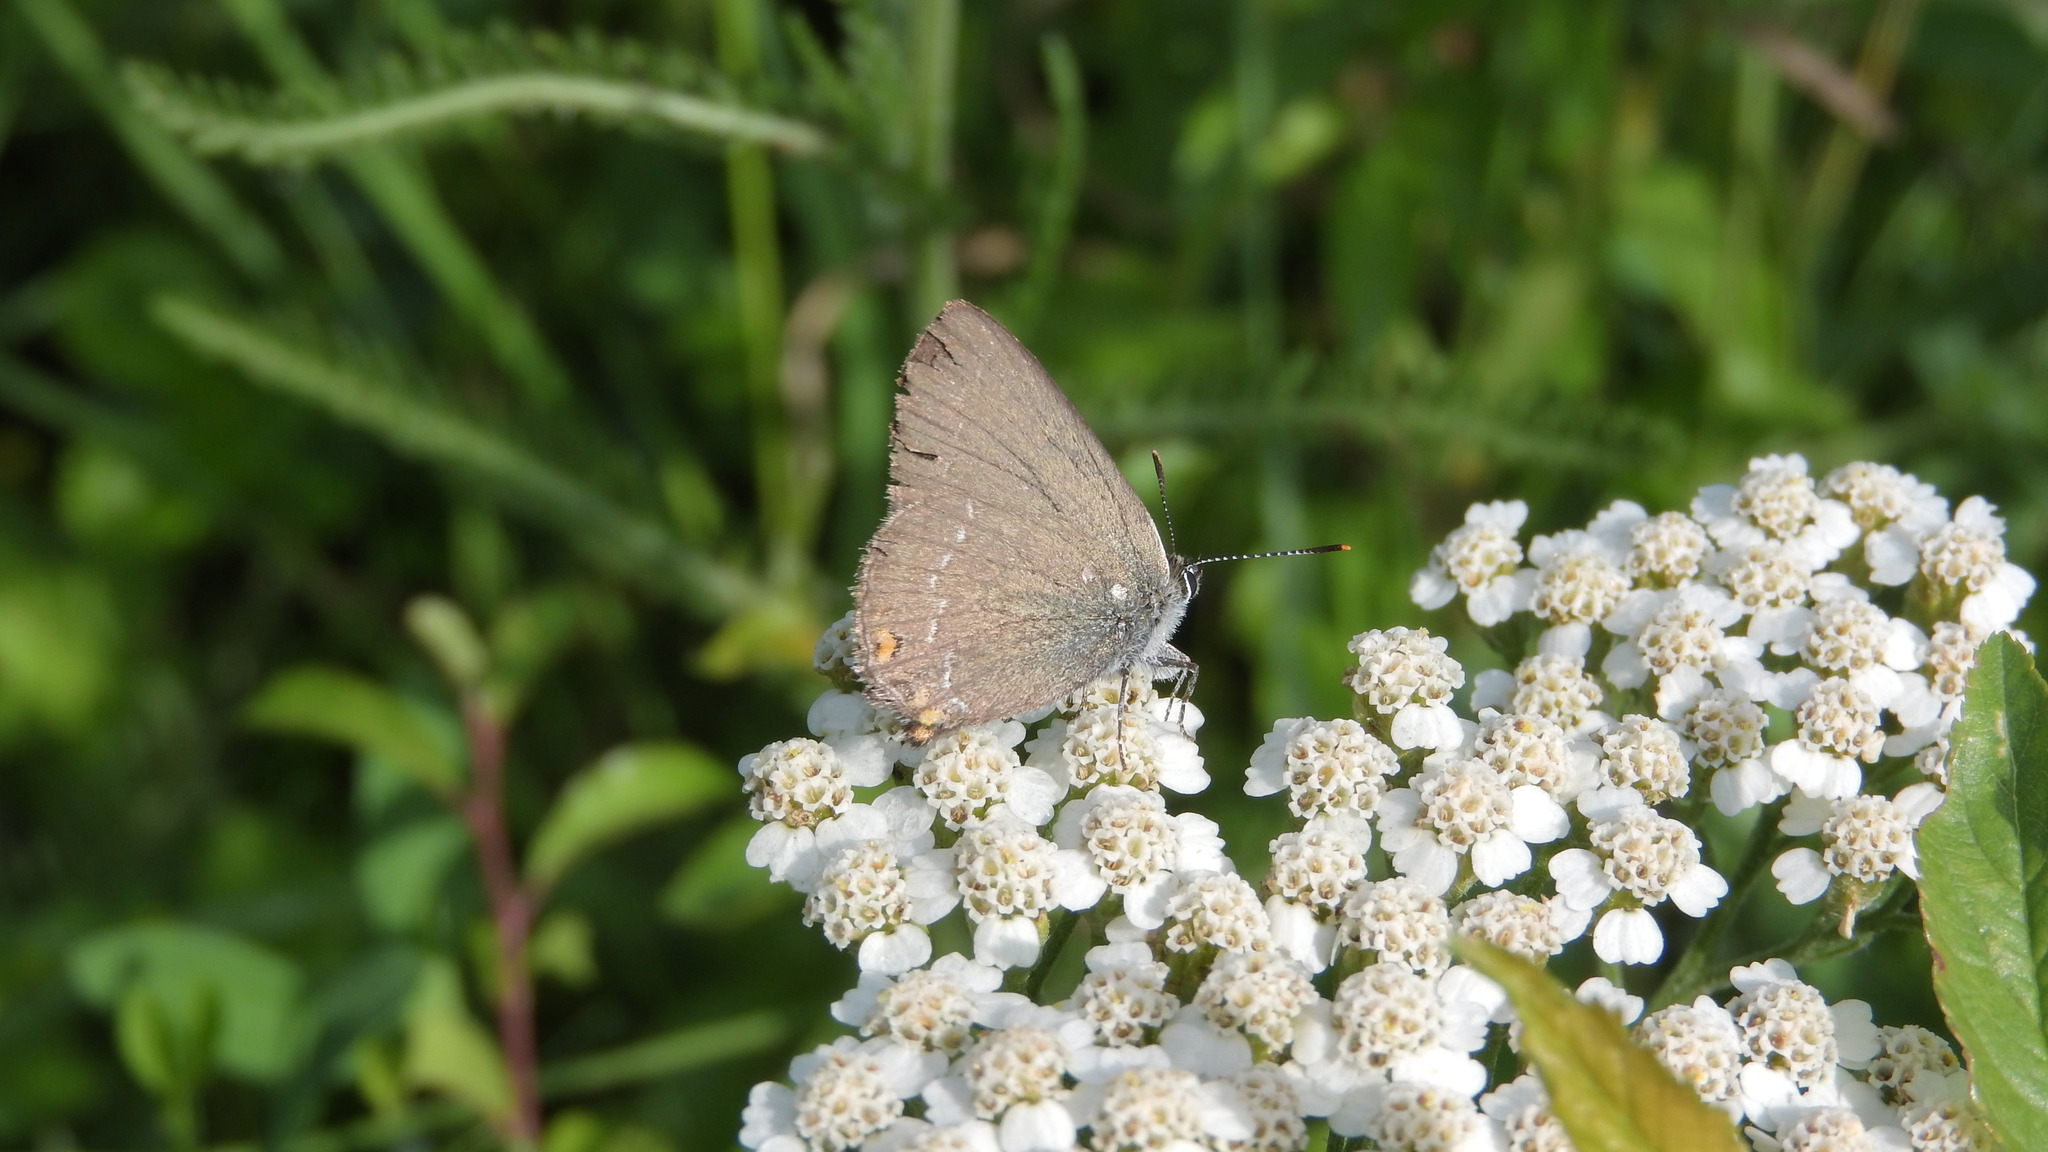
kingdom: Animalia
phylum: Arthropoda
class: Insecta
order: Lepidoptera
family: Lycaenidae
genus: Strymon
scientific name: Strymon acaciae
